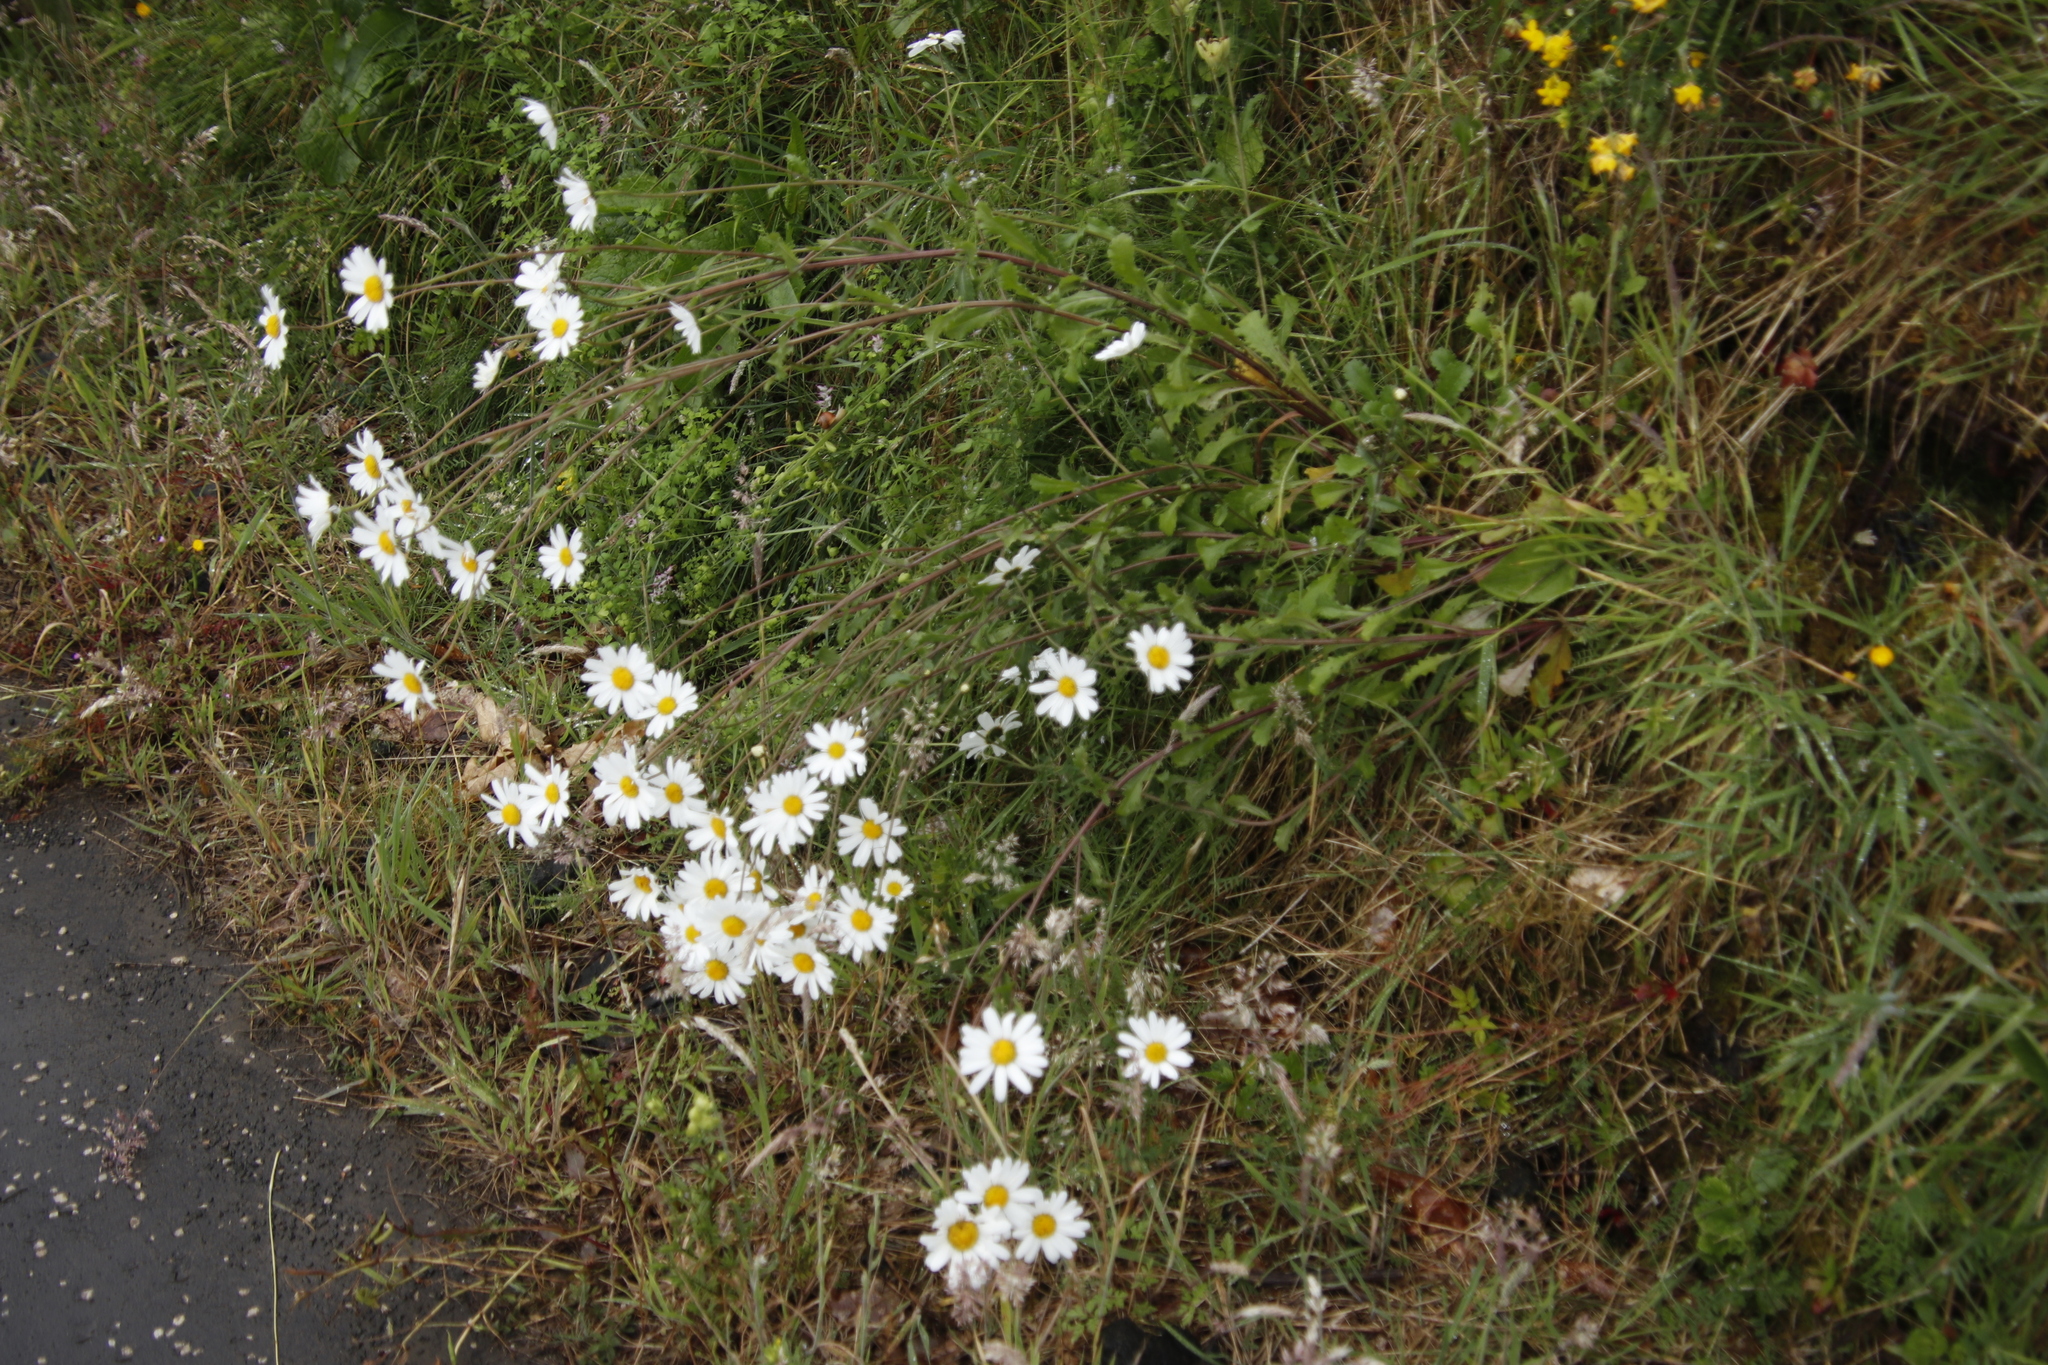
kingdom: Plantae
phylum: Tracheophyta
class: Magnoliopsida
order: Asterales
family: Asteraceae
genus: Leucanthemum
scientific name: Leucanthemum vulgare
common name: Oxeye daisy
